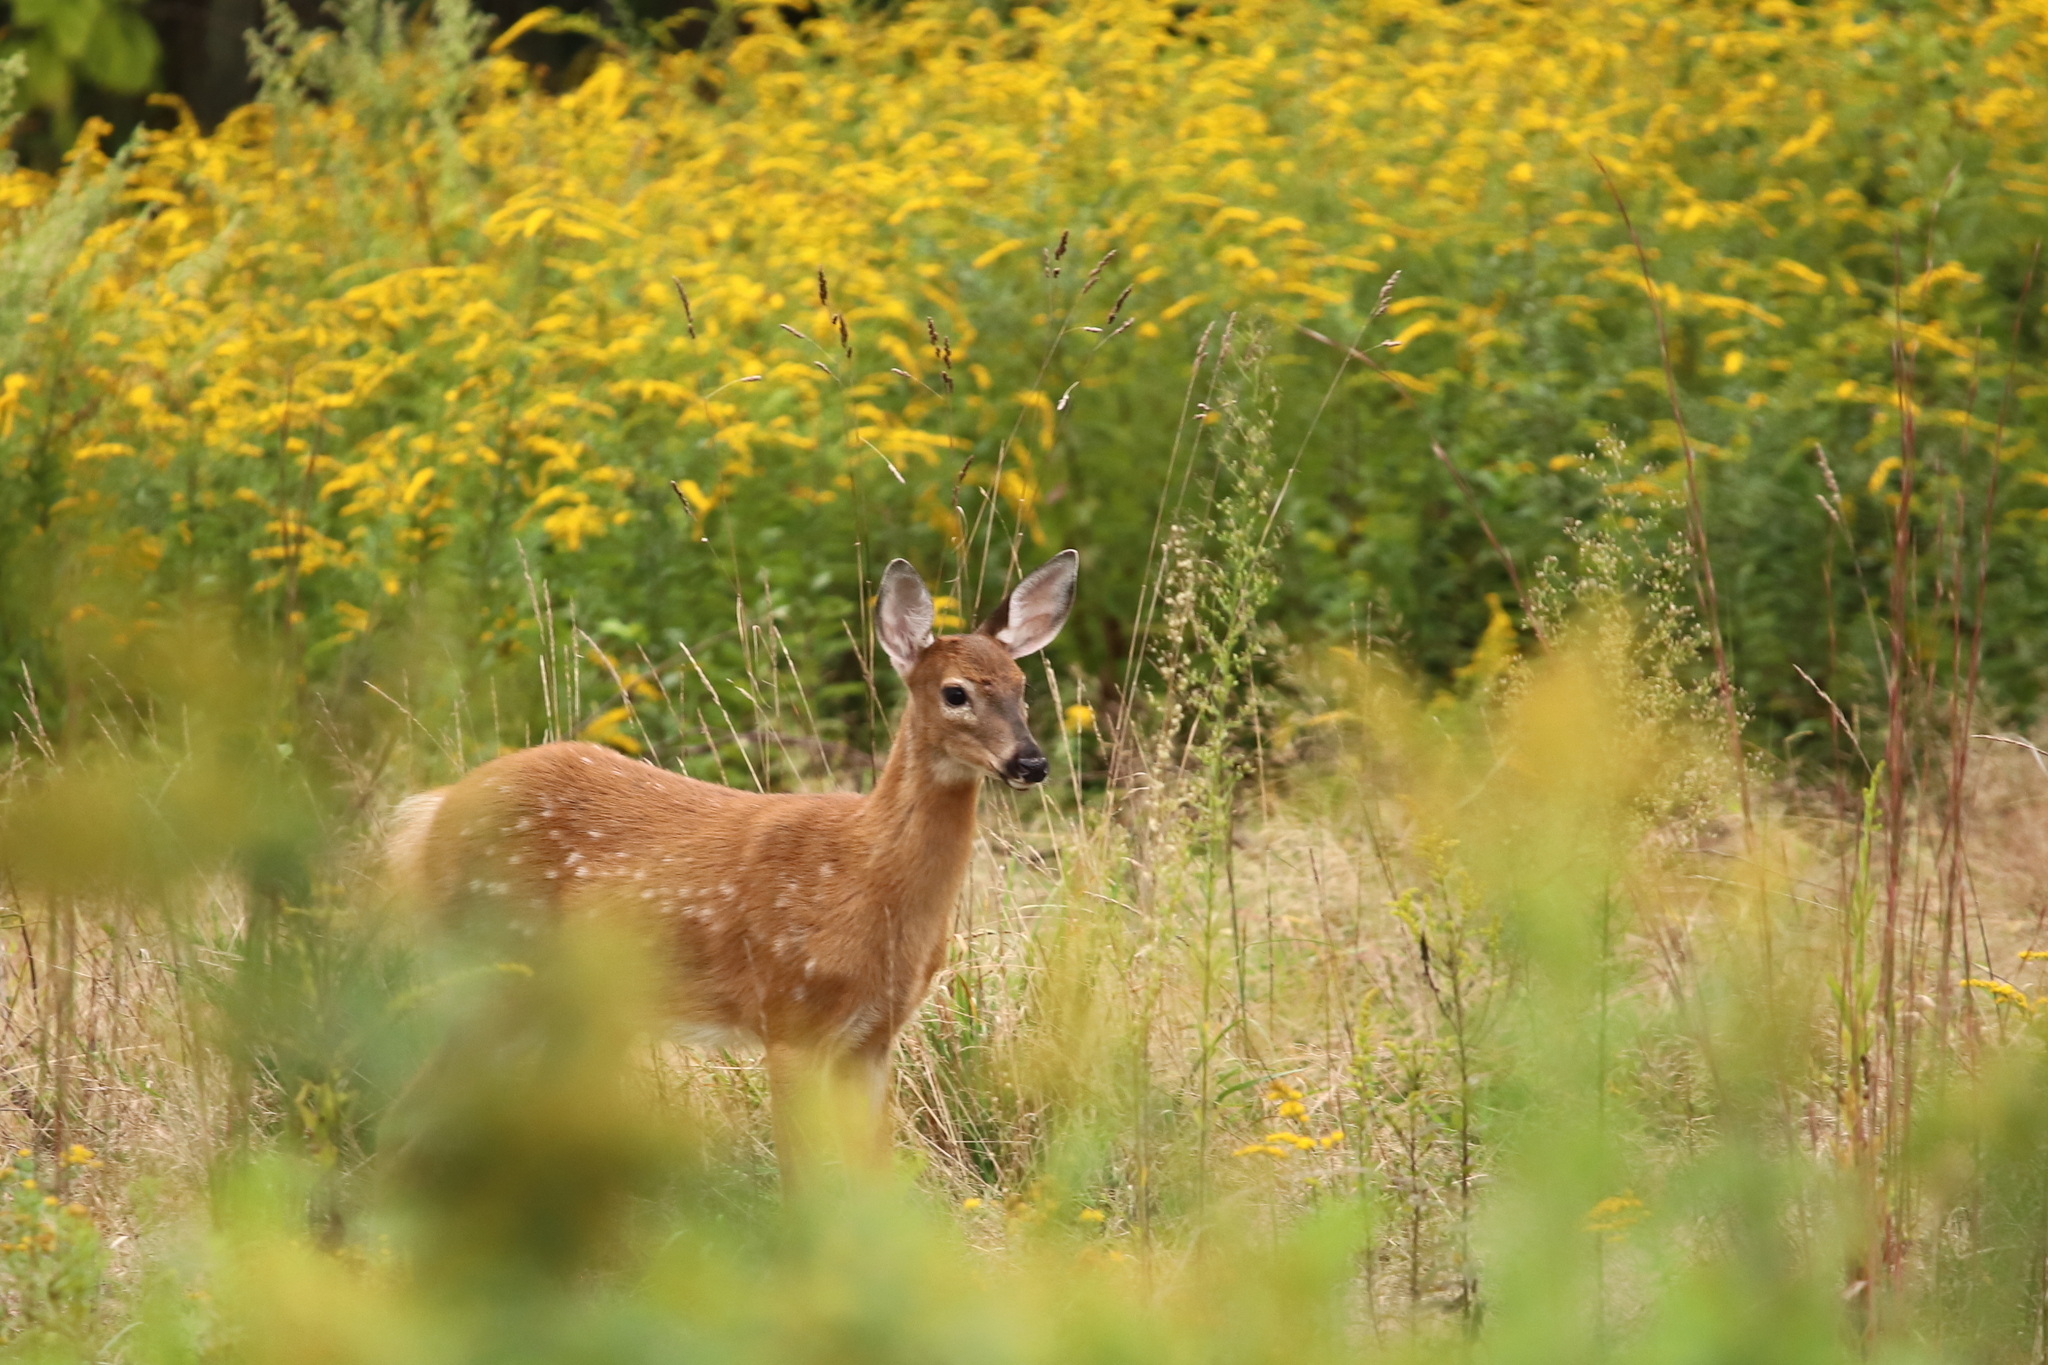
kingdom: Animalia
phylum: Chordata
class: Mammalia
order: Artiodactyla
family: Cervidae
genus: Odocoileus
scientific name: Odocoileus virginianus
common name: White-tailed deer
